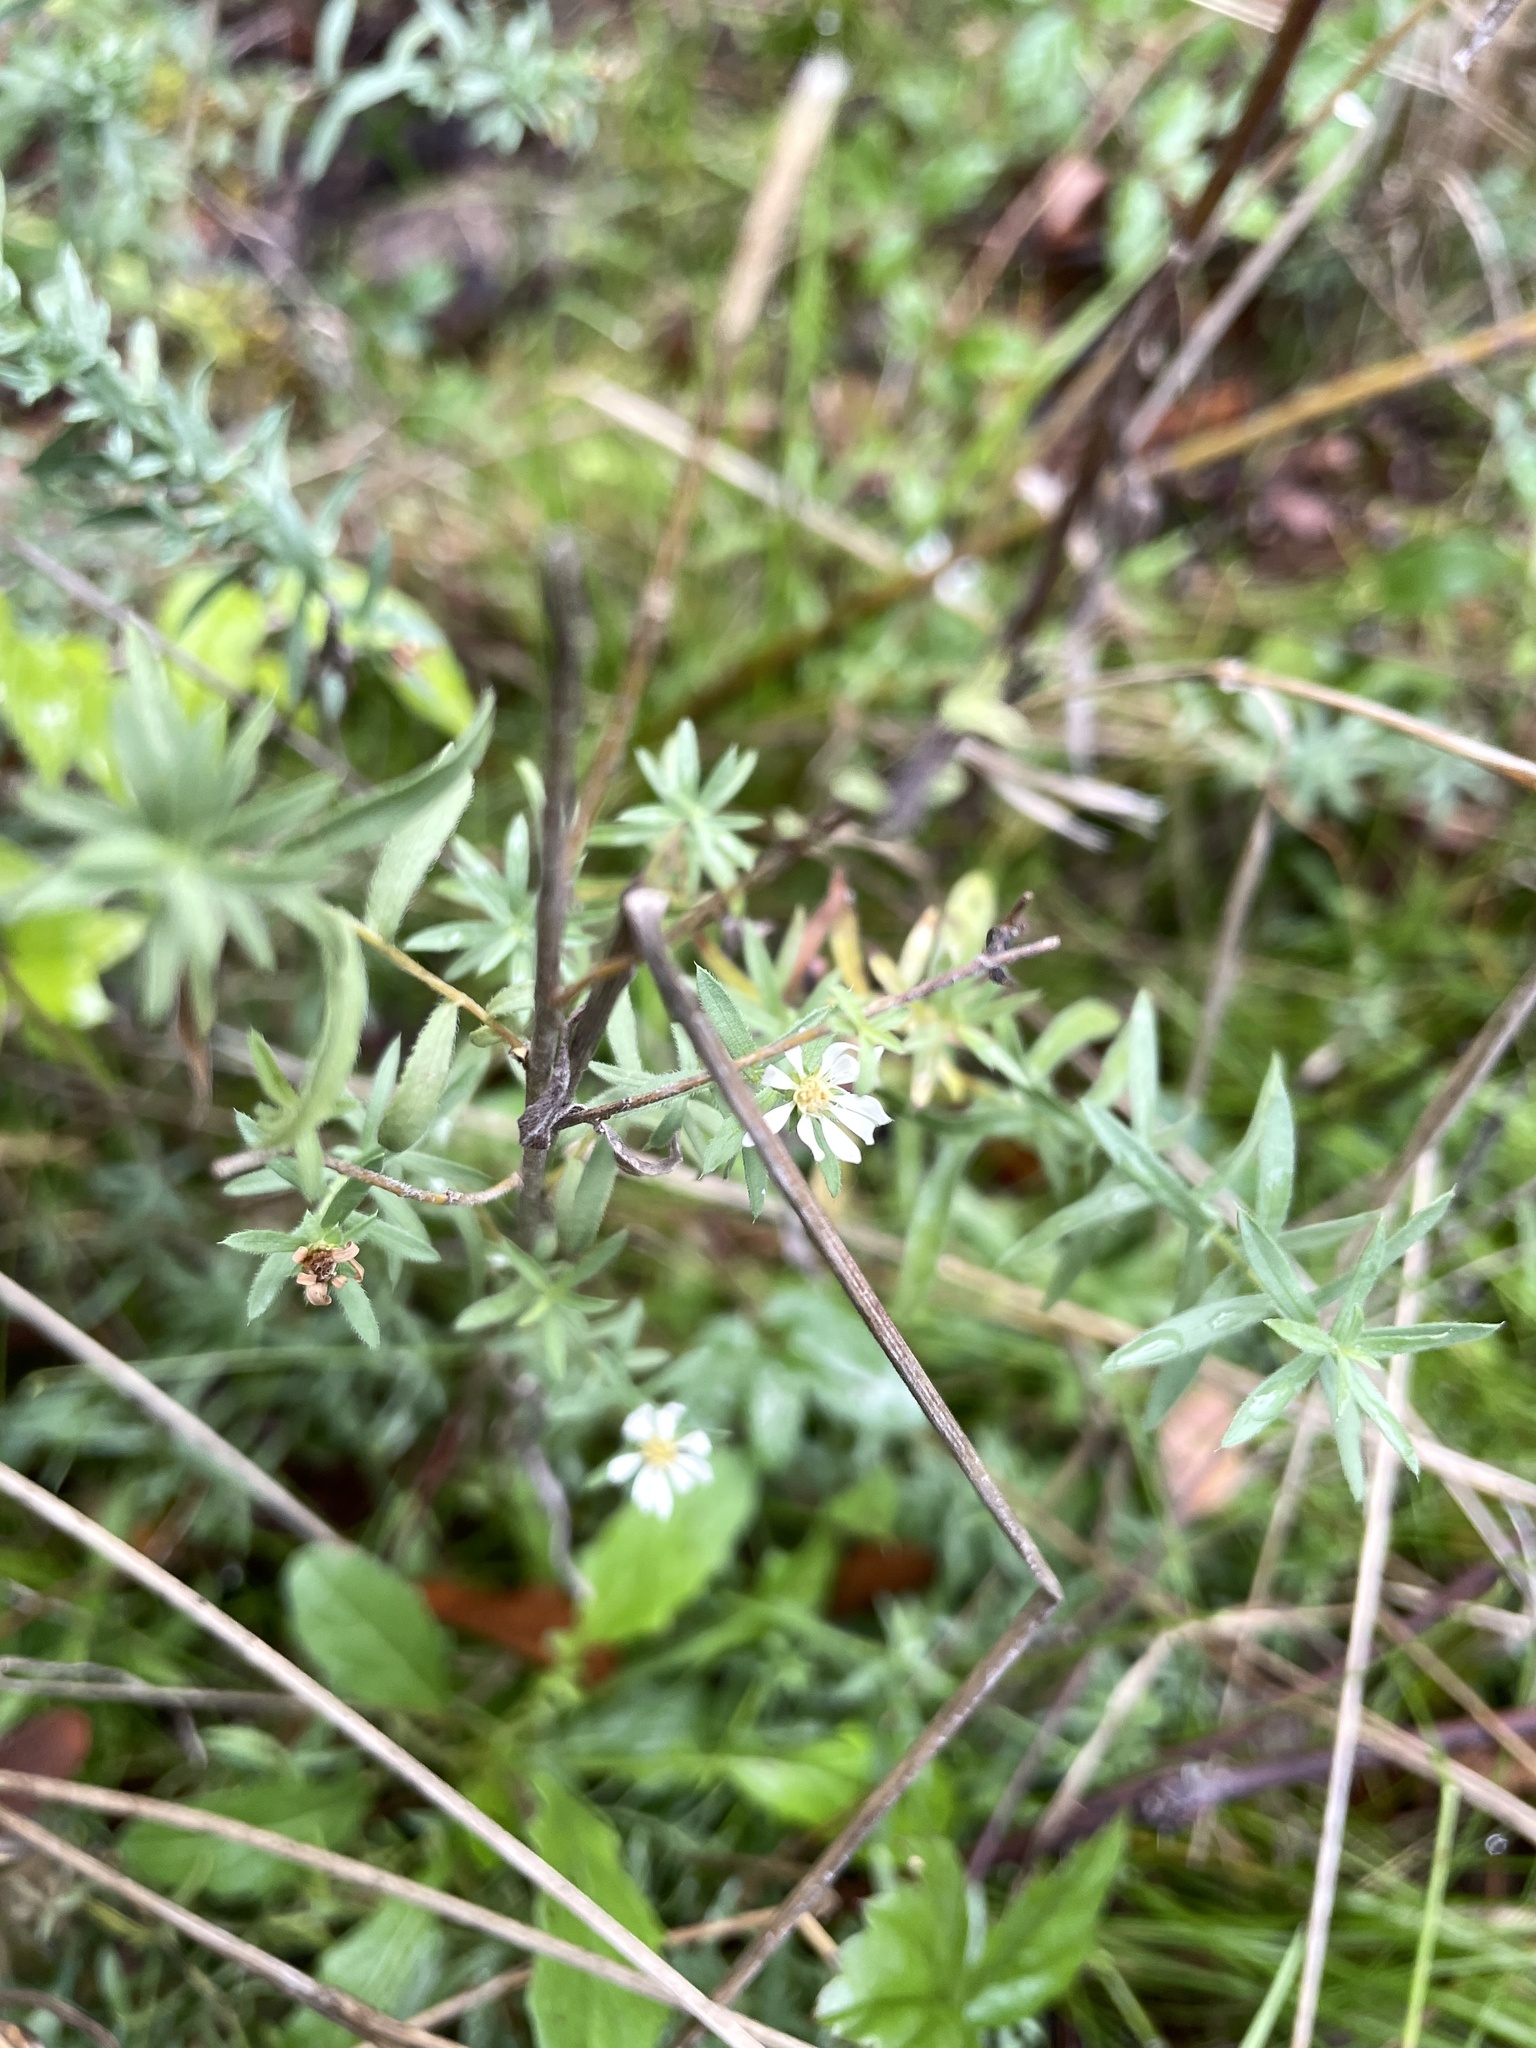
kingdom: Plantae
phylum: Tracheophyta
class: Magnoliopsida
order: Asterales
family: Asteraceae
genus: Symphyotrichum
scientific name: Symphyotrichum ericoides
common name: Heath aster
